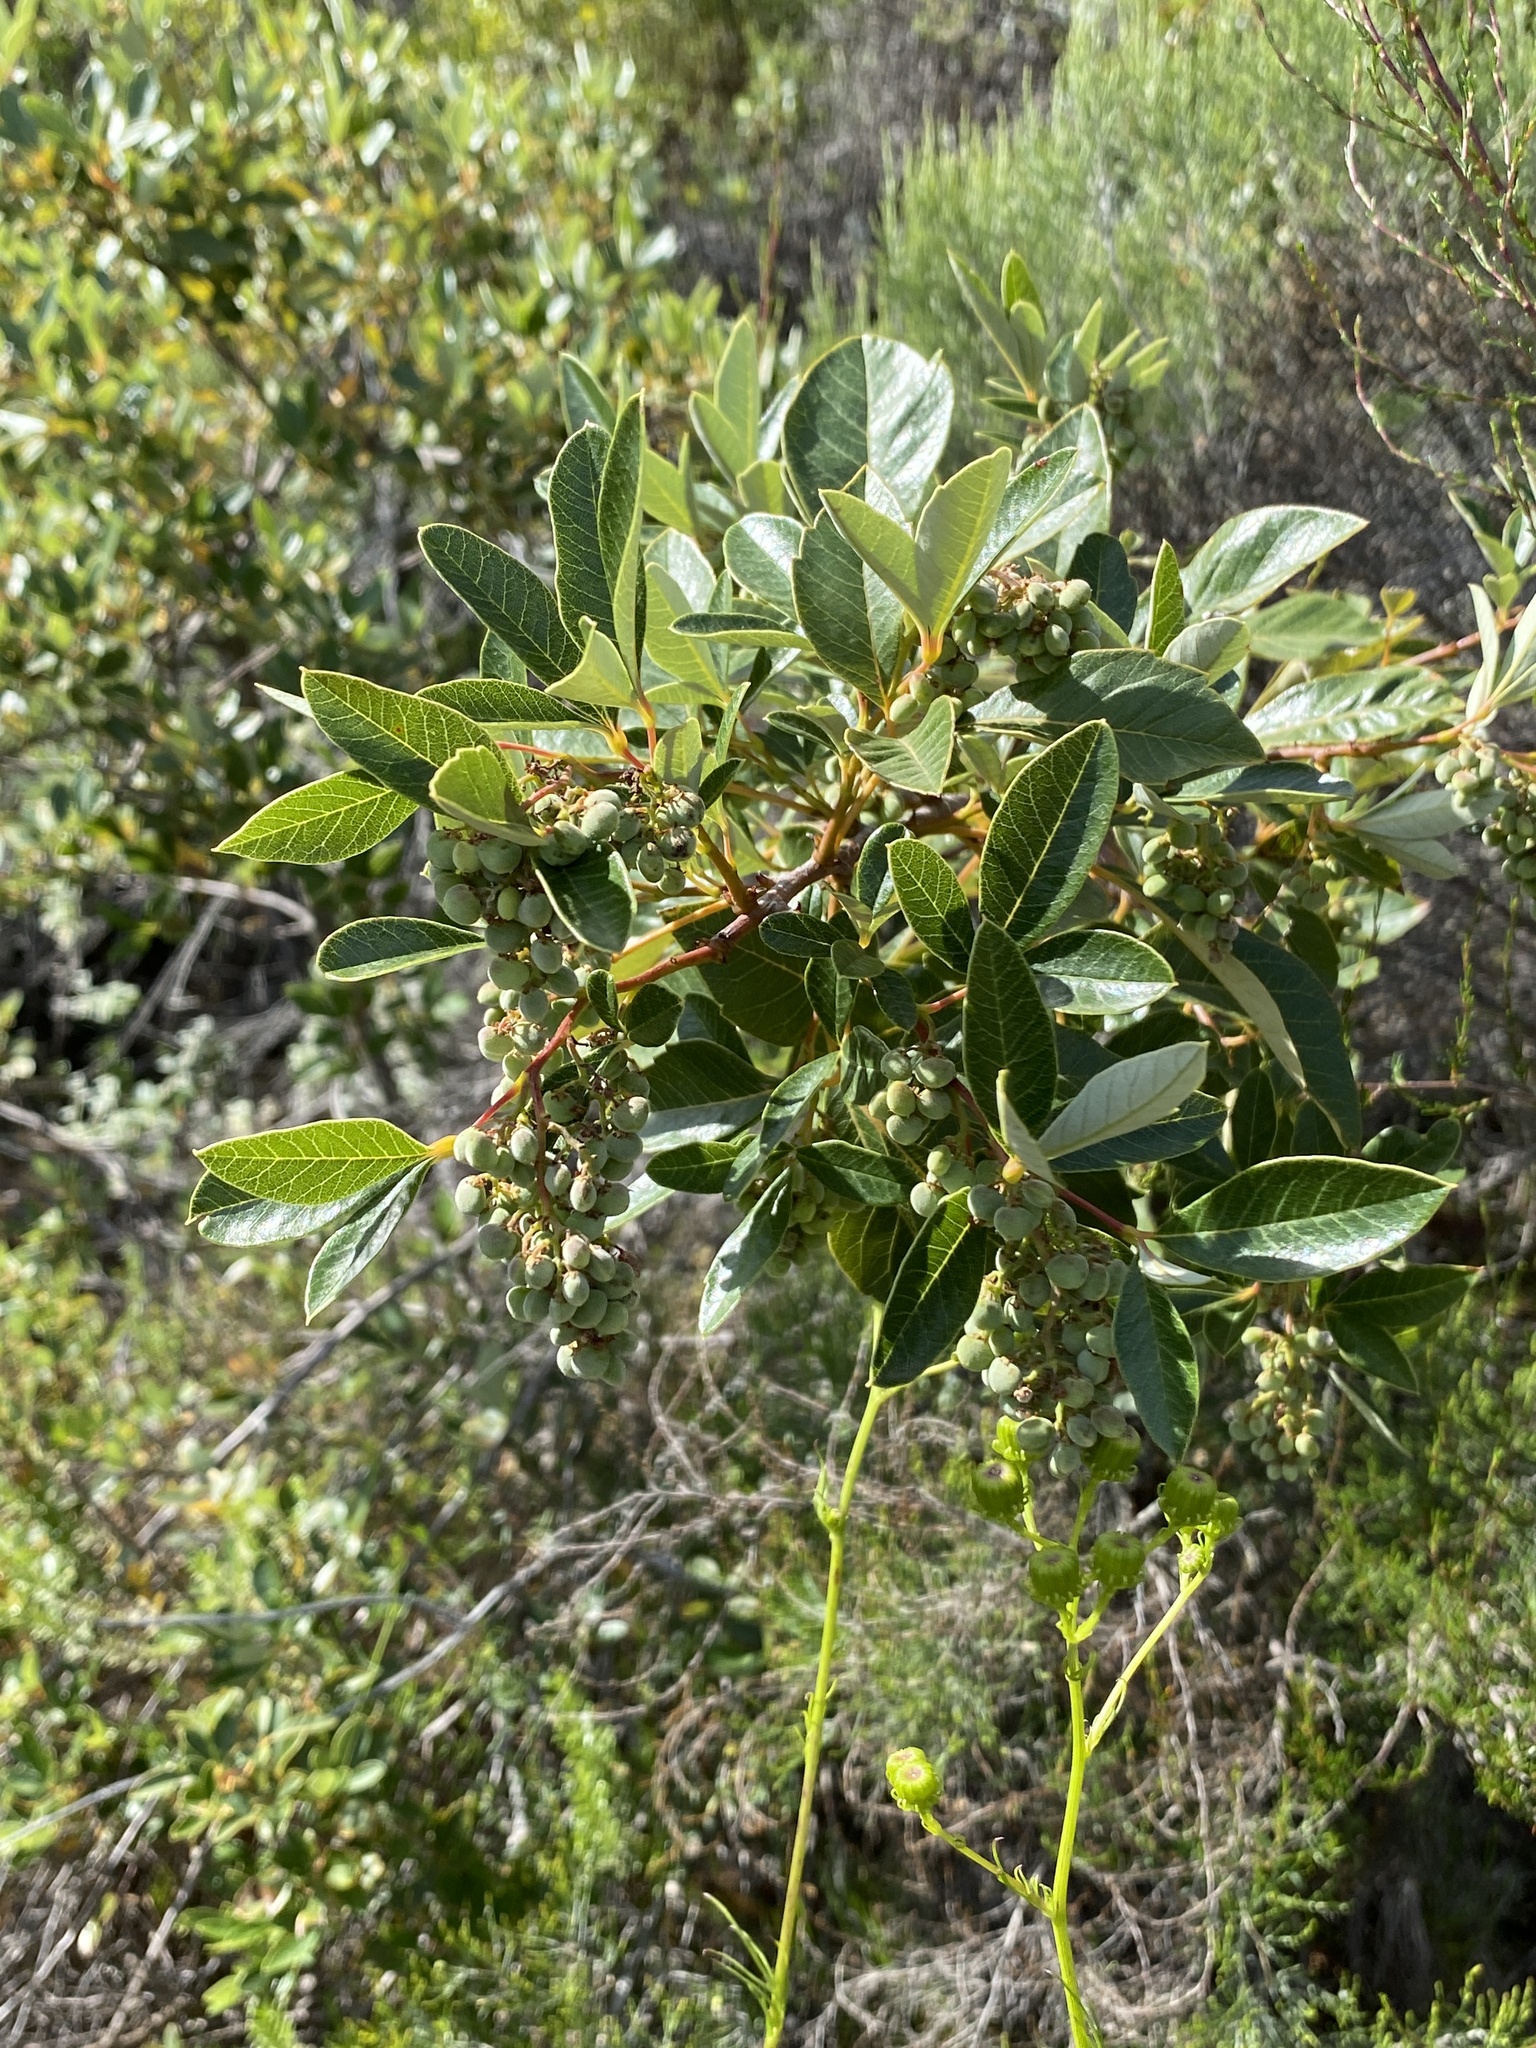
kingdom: Plantae
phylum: Tracheophyta
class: Magnoliopsida
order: Sapindales
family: Anacardiaceae
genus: Searsia
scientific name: Searsia tomentosa
